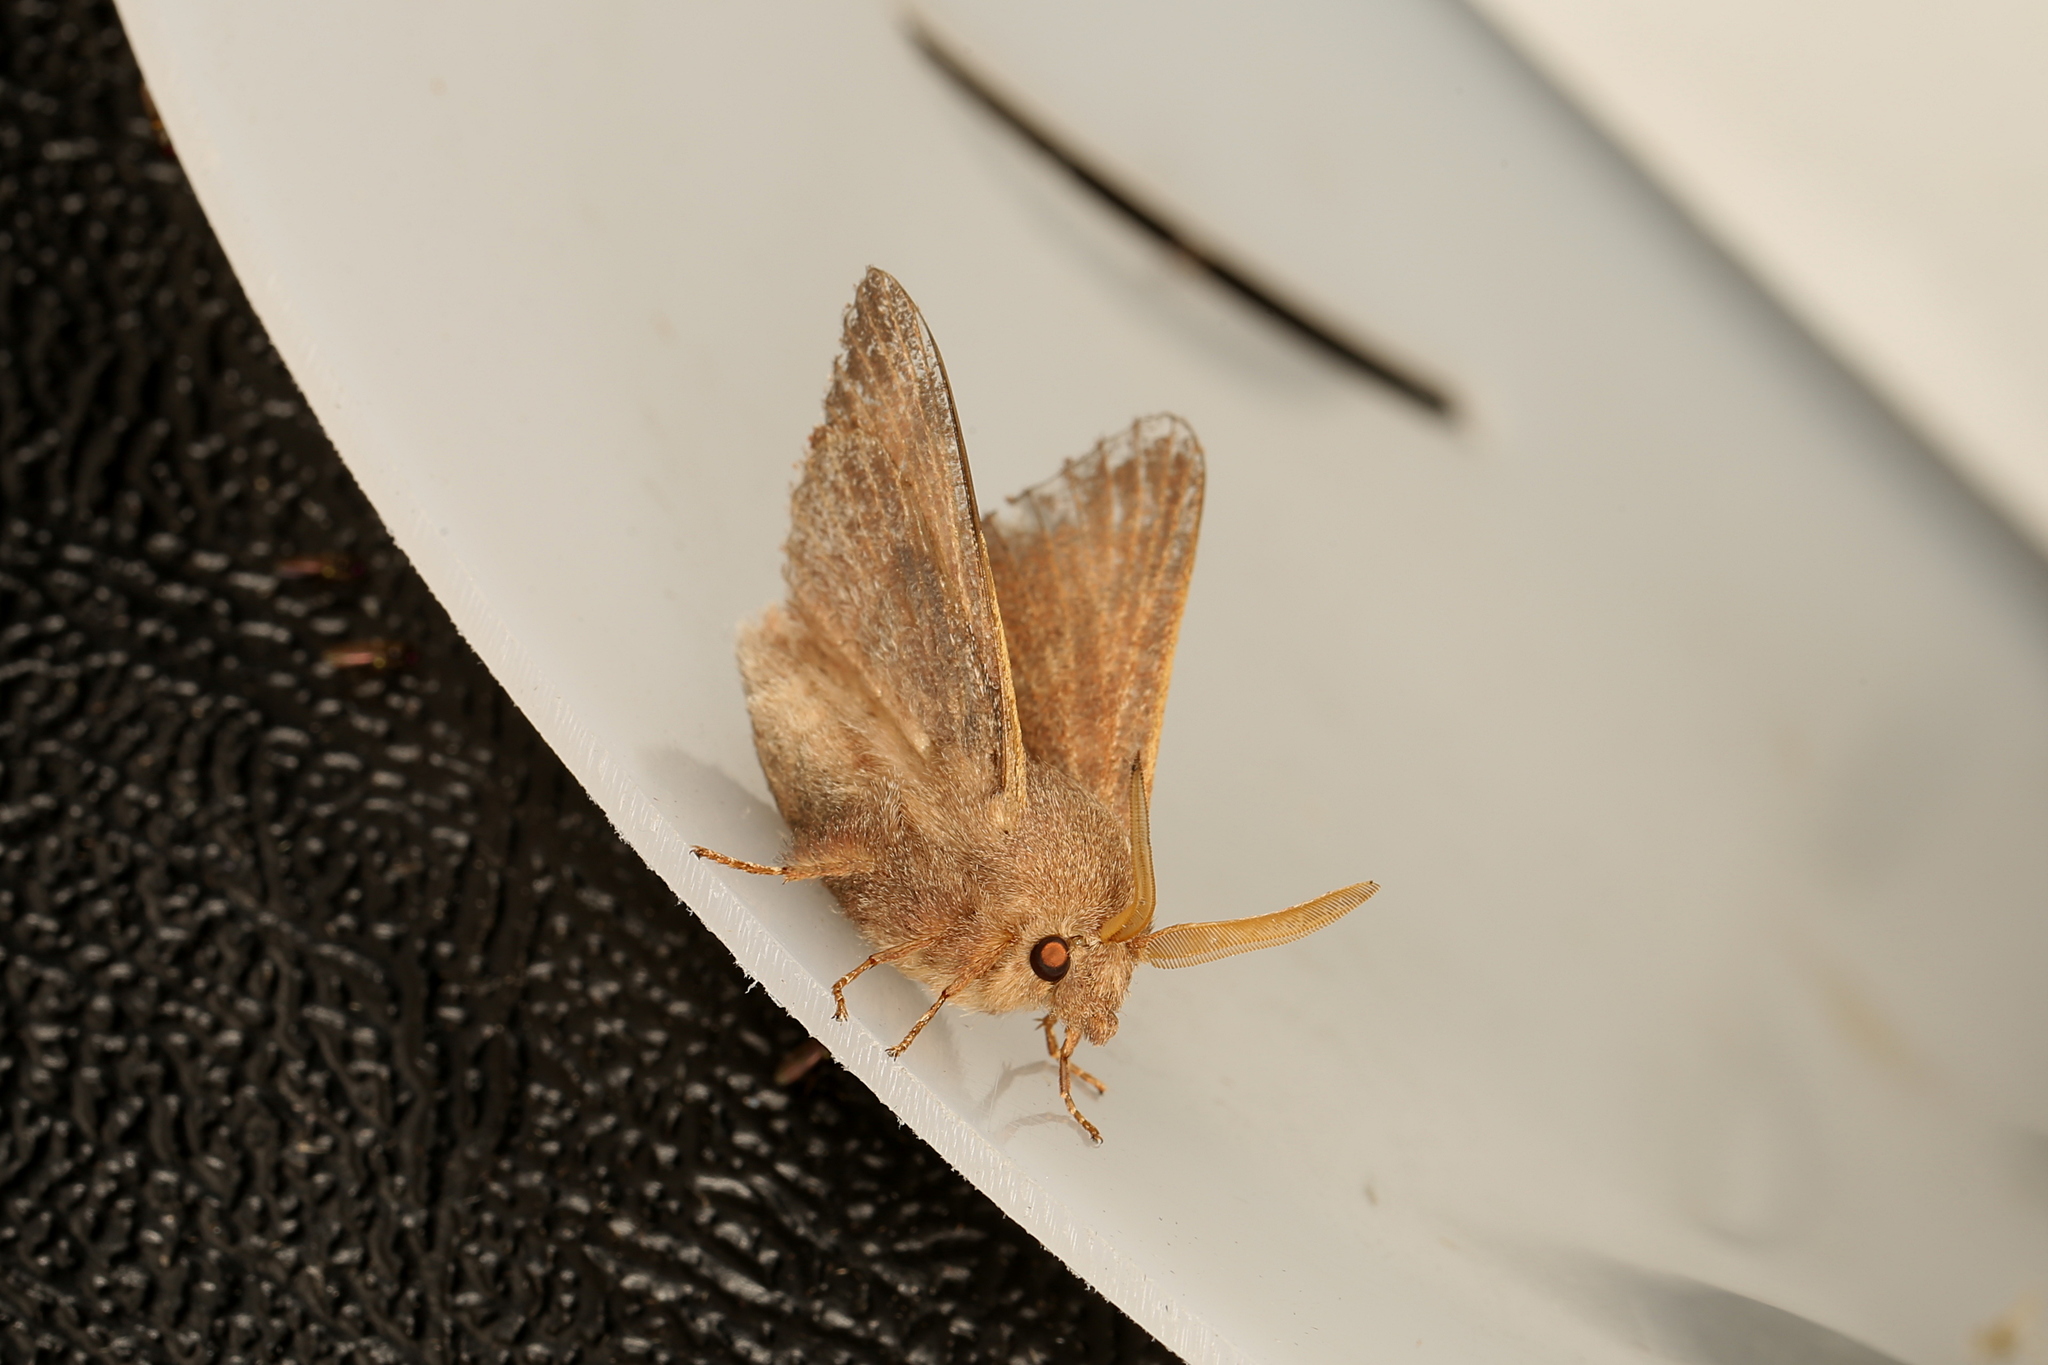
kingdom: Animalia
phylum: Arthropoda
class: Insecta
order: Lepidoptera
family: Lasiocampidae
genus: Pararguda
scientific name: Pararguda rufescens
